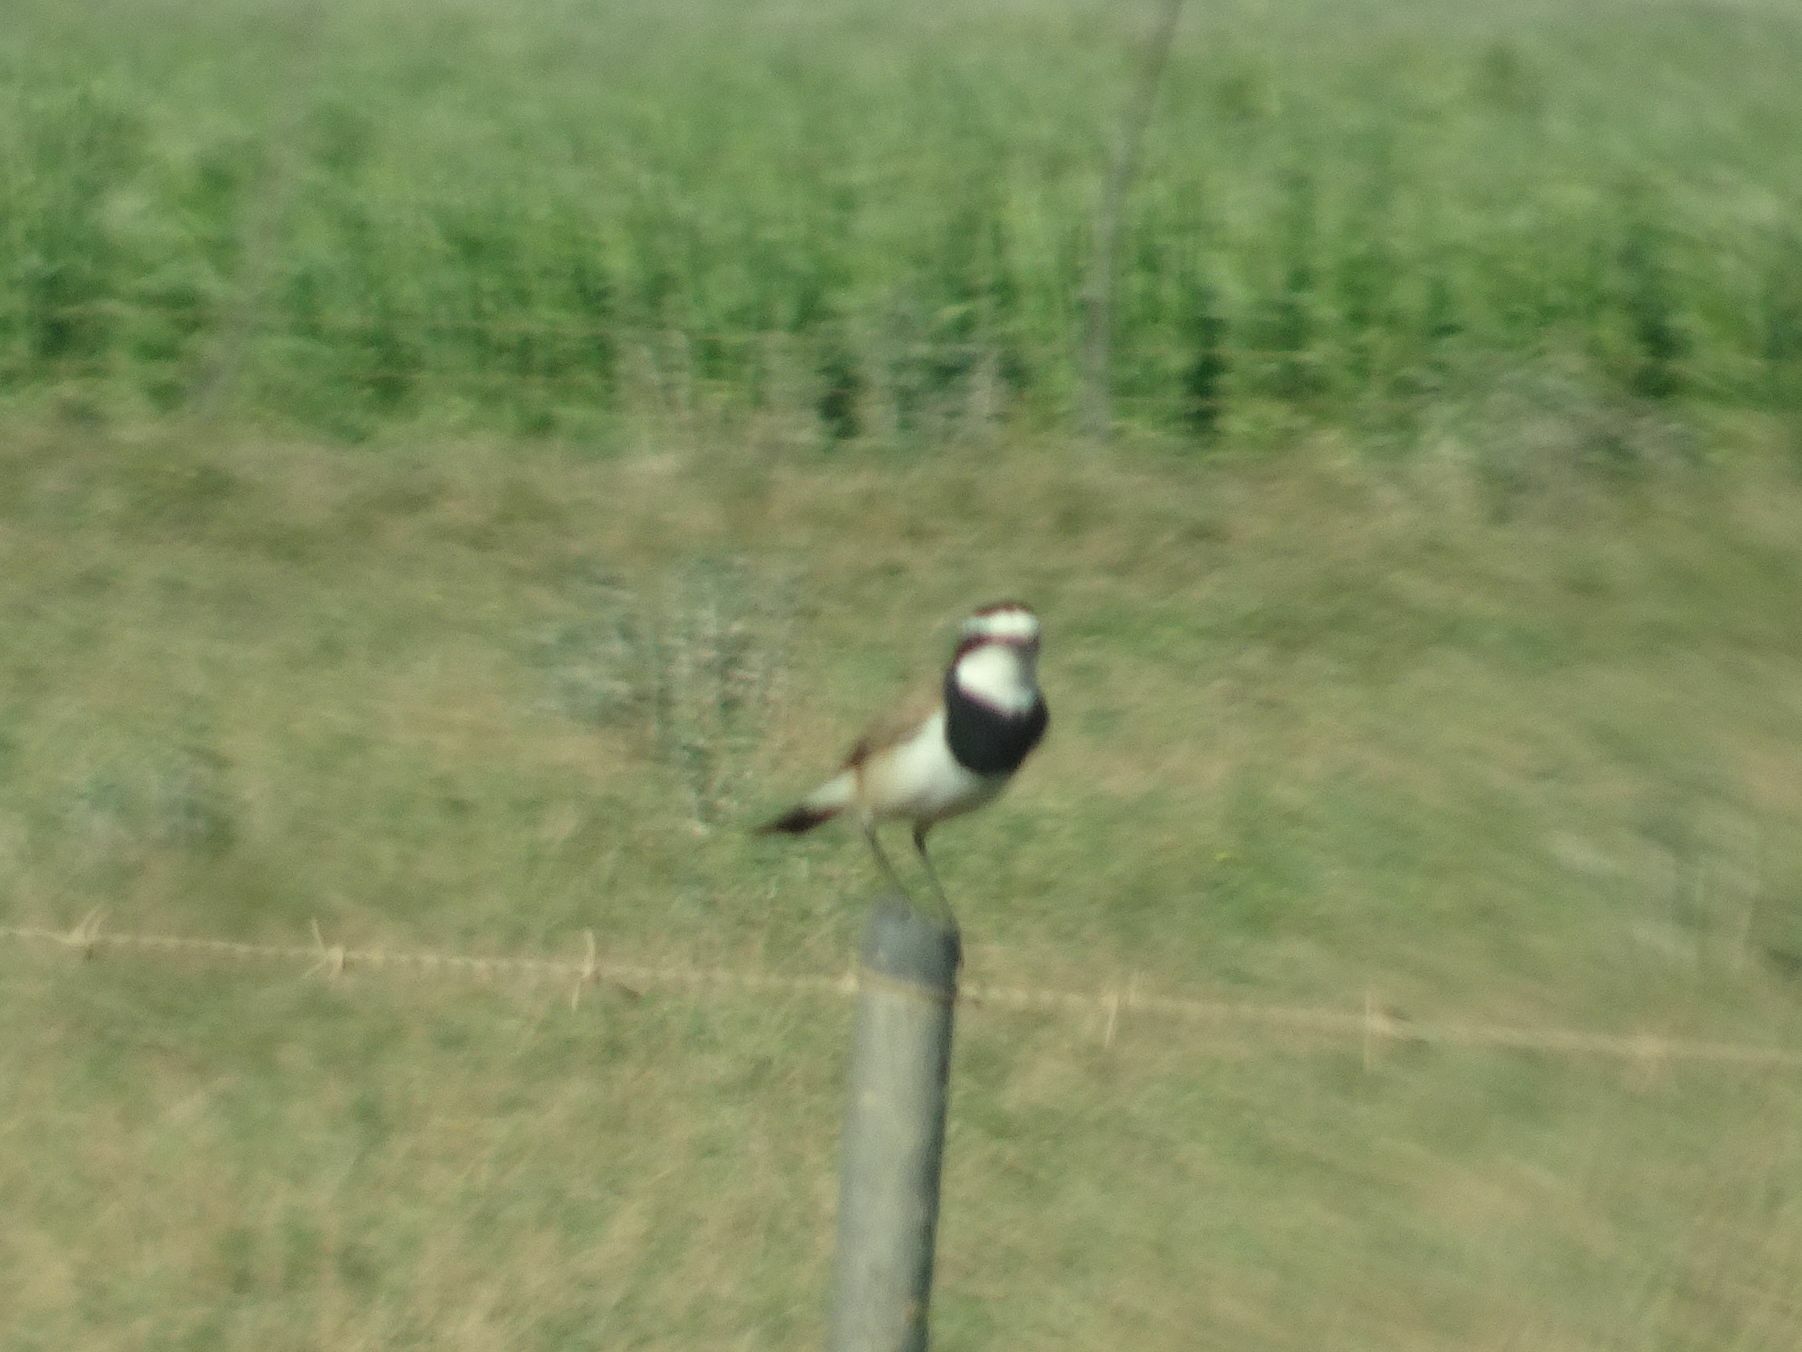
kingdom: Animalia
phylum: Chordata
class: Aves
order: Passeriformes
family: Muscicapidae
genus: Oenanthe
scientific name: Oenanthe pileata
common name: Capped wheatear
